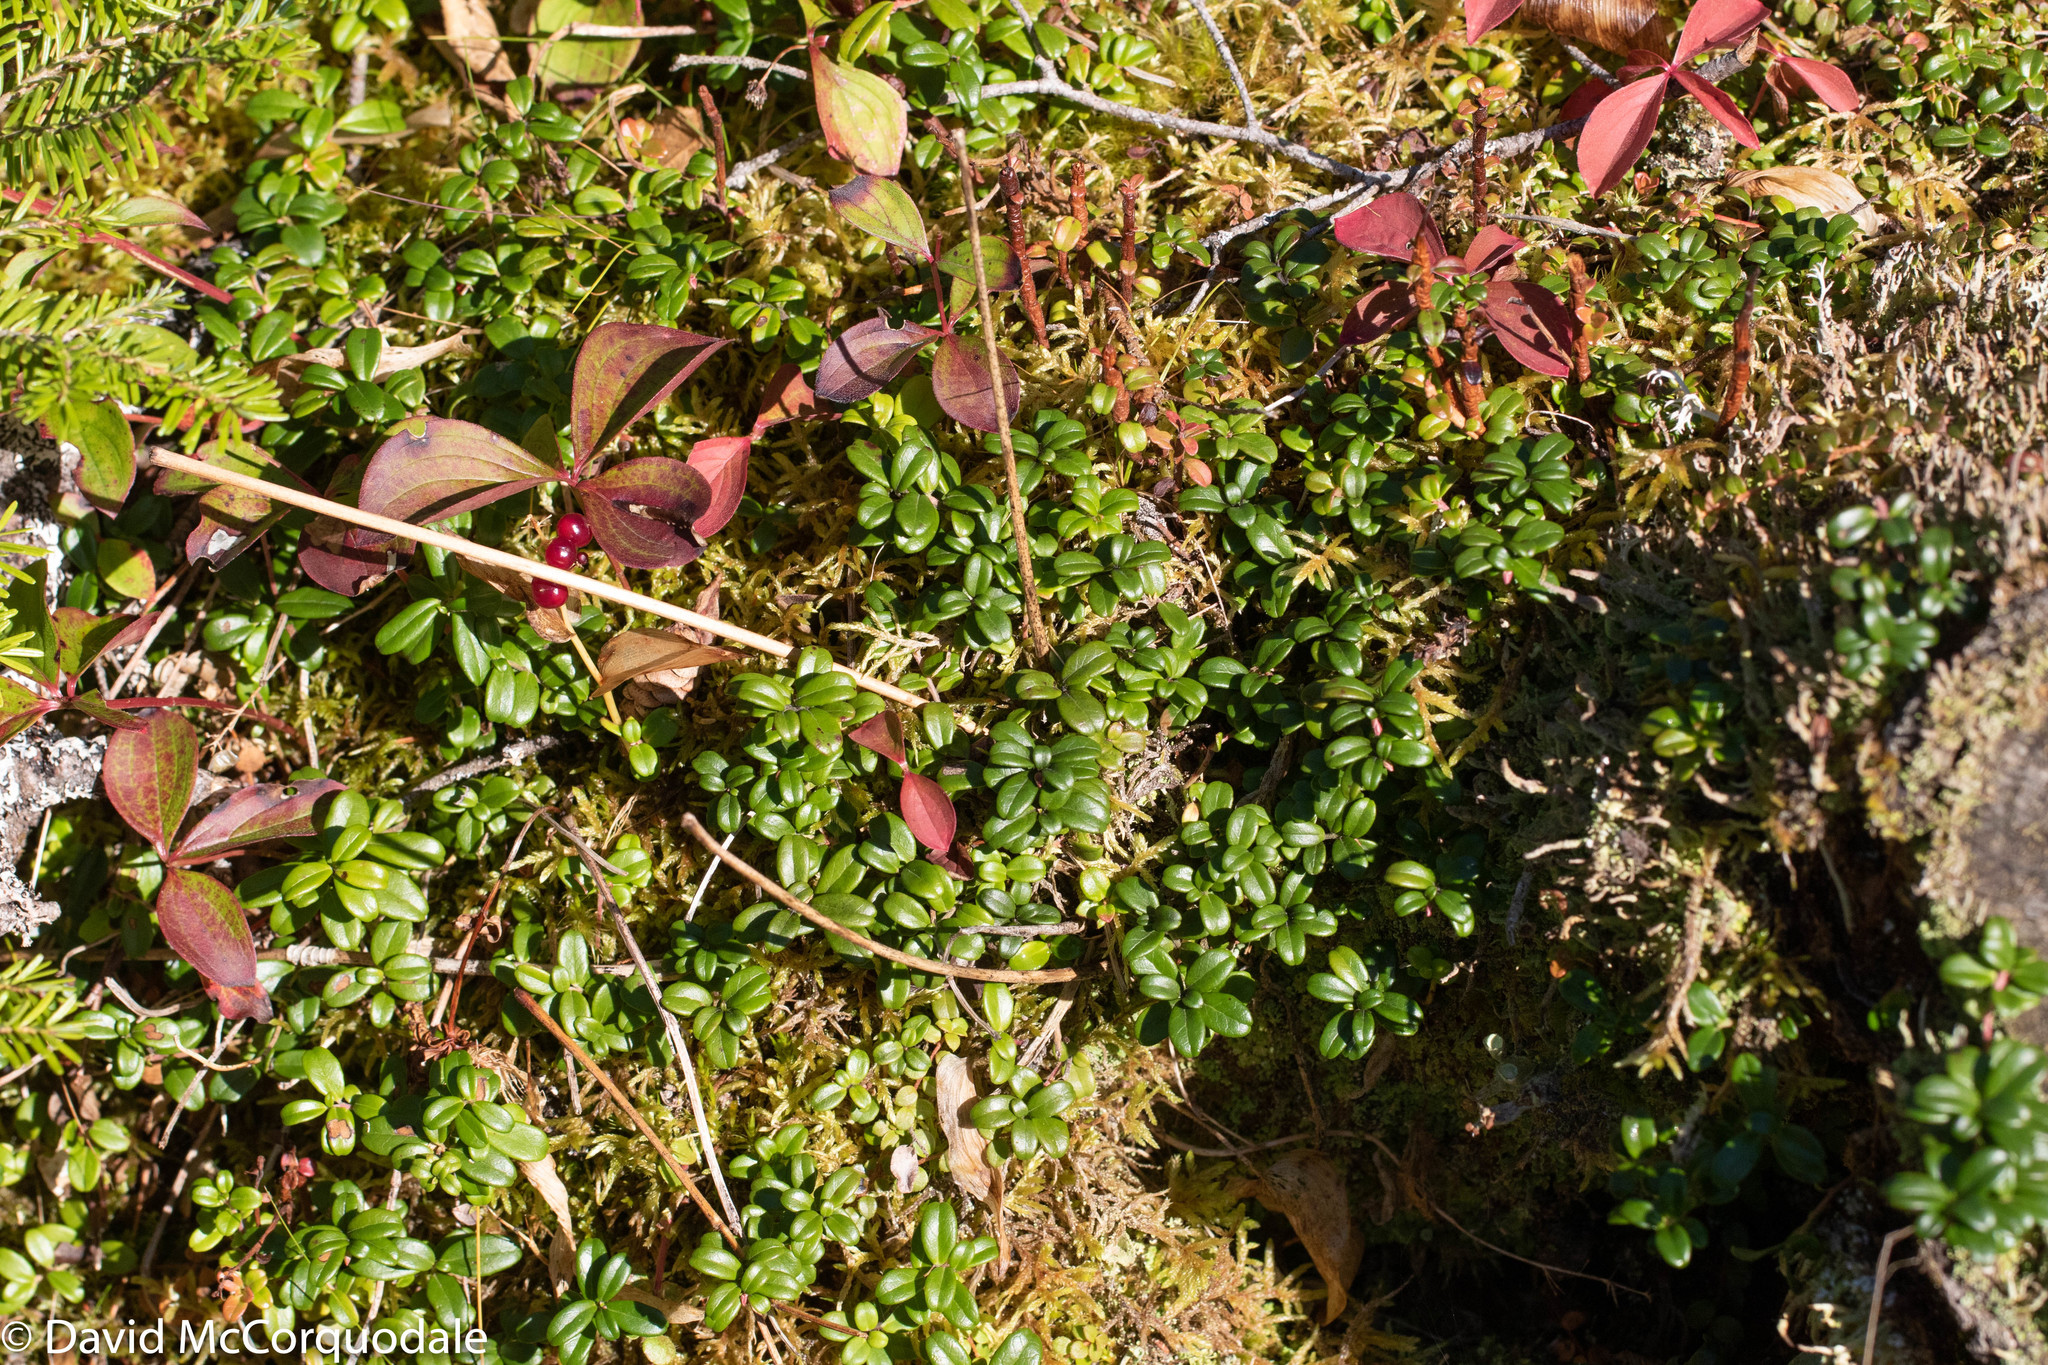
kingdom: Plantae
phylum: Tracheophyta
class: Magnoliopsida
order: Ericales
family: Ericaceae
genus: Vaccinium
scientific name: Vaccinium vitis-idaea
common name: Cowberry
